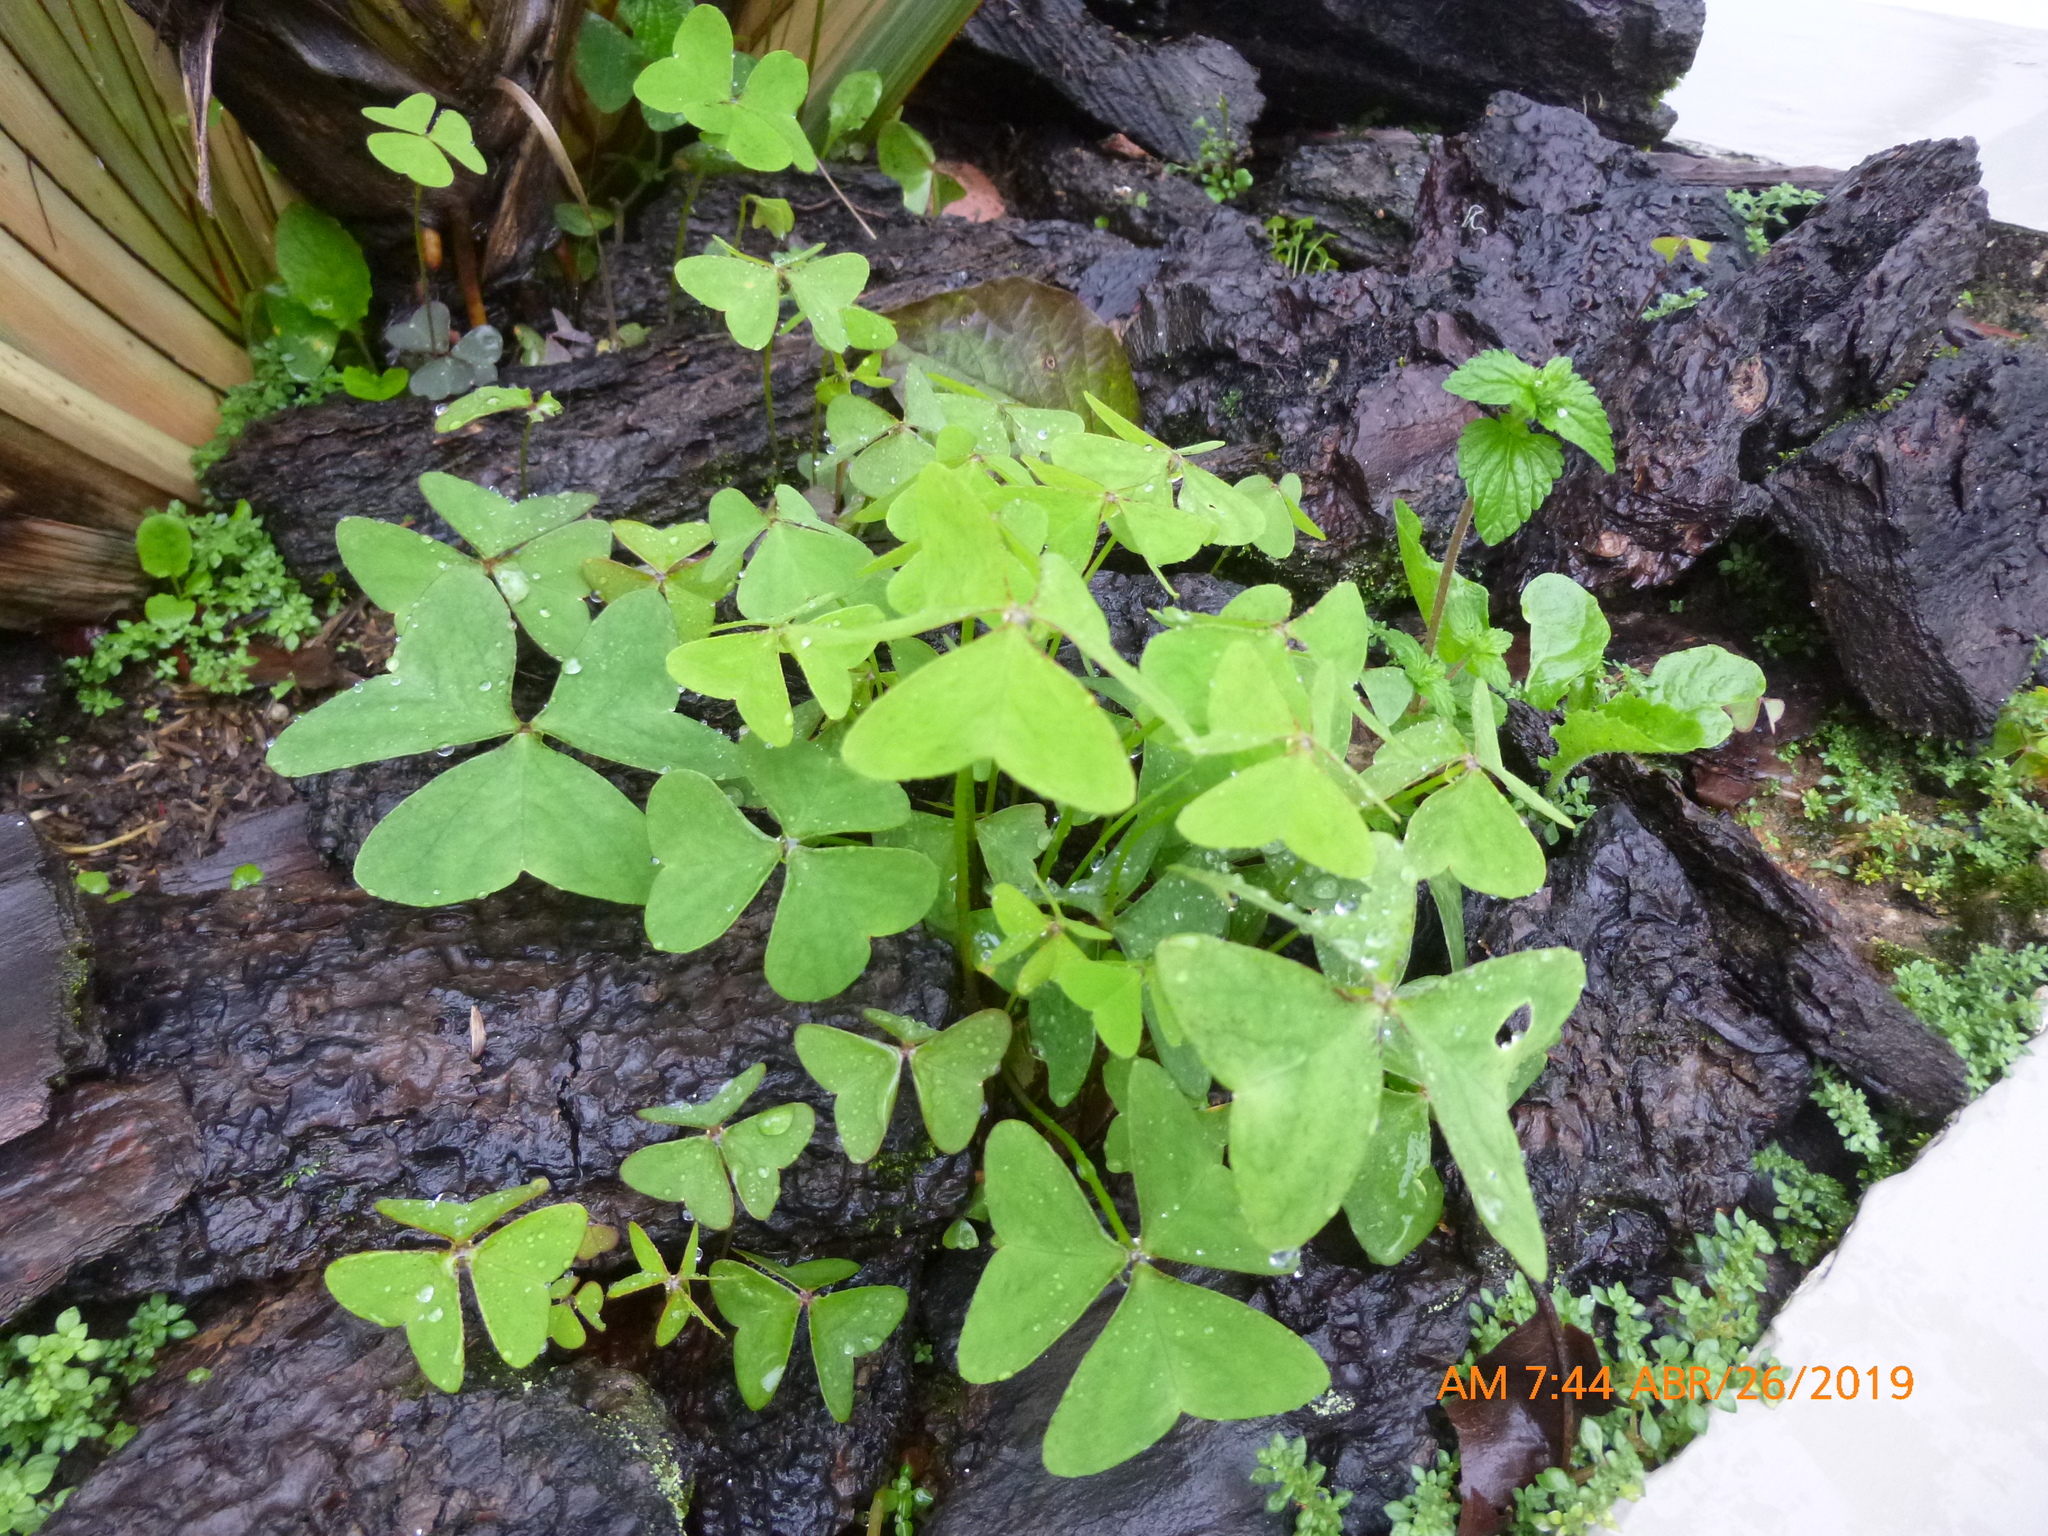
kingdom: Plantae
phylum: Tracheophyta
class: Magnoliopsida
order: Oxalidales
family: Oxalidaceae
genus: Oxalis
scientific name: Oxalis latifolia
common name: Garden pink-sorrel
